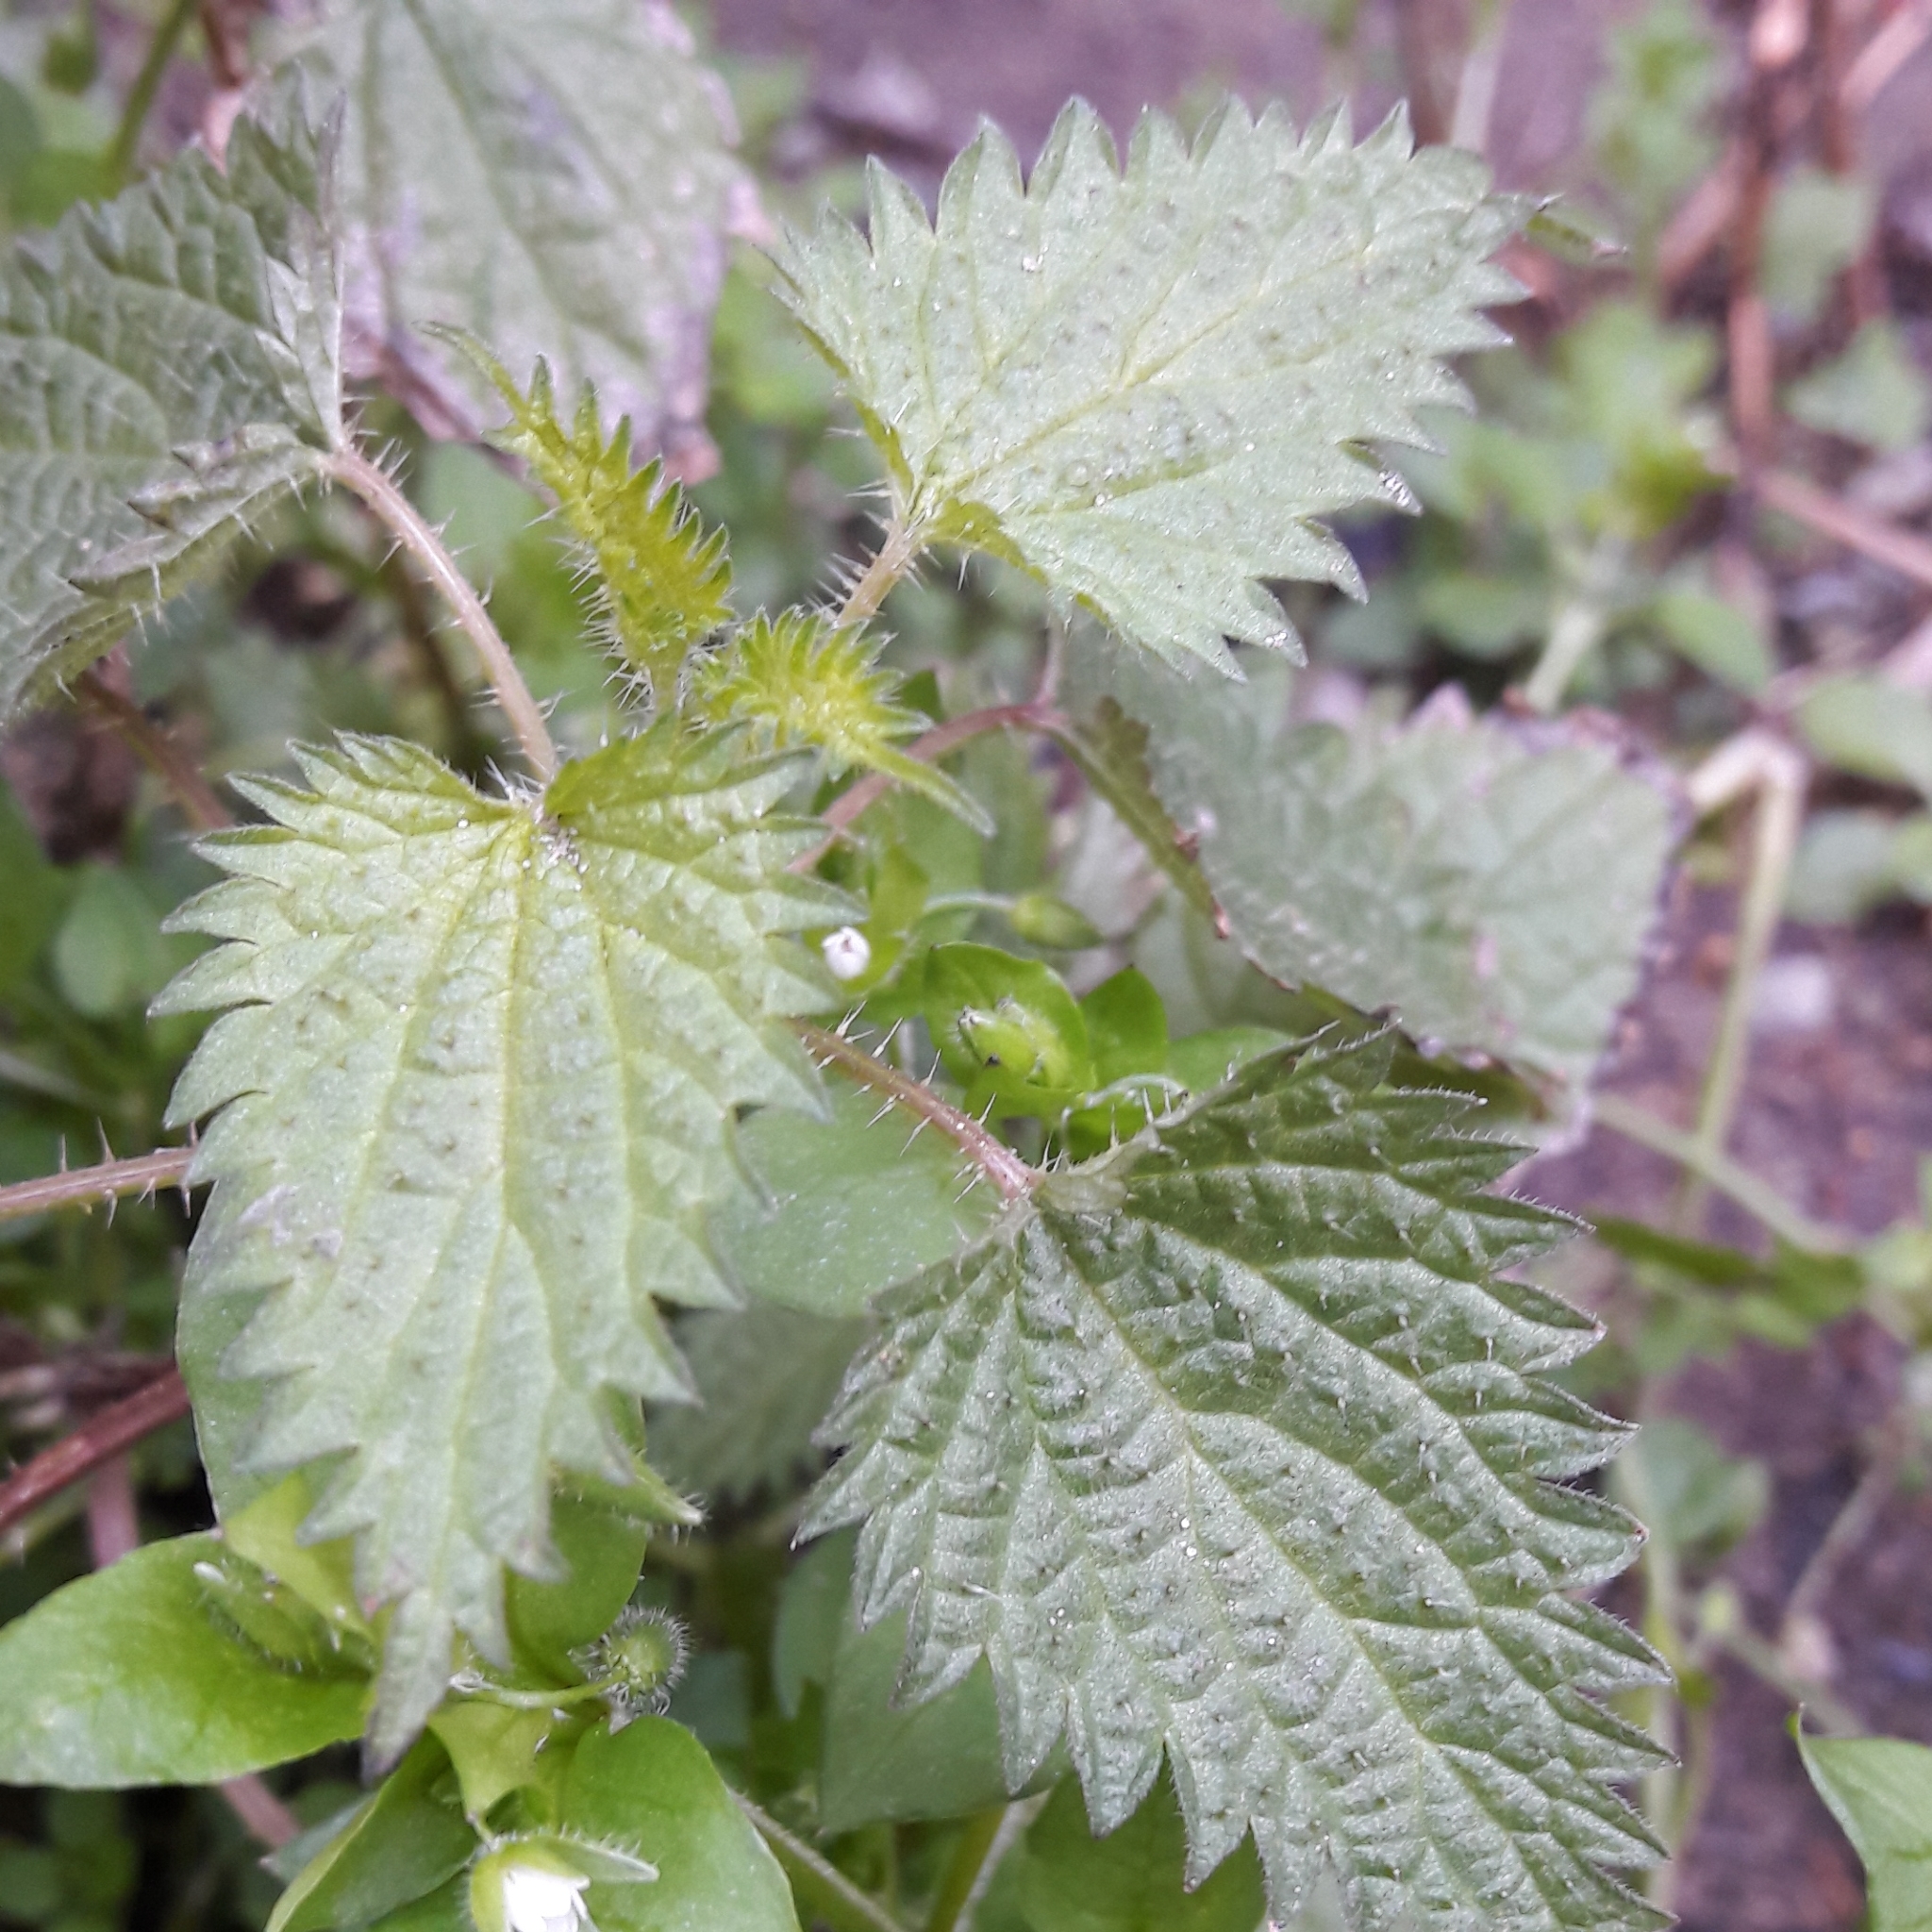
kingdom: Plantae
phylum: Tracheophyta
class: Magnoliopsida
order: Rosales
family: Urticaceae
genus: Urtica
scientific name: Urtica urens
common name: Dwarf nettle
